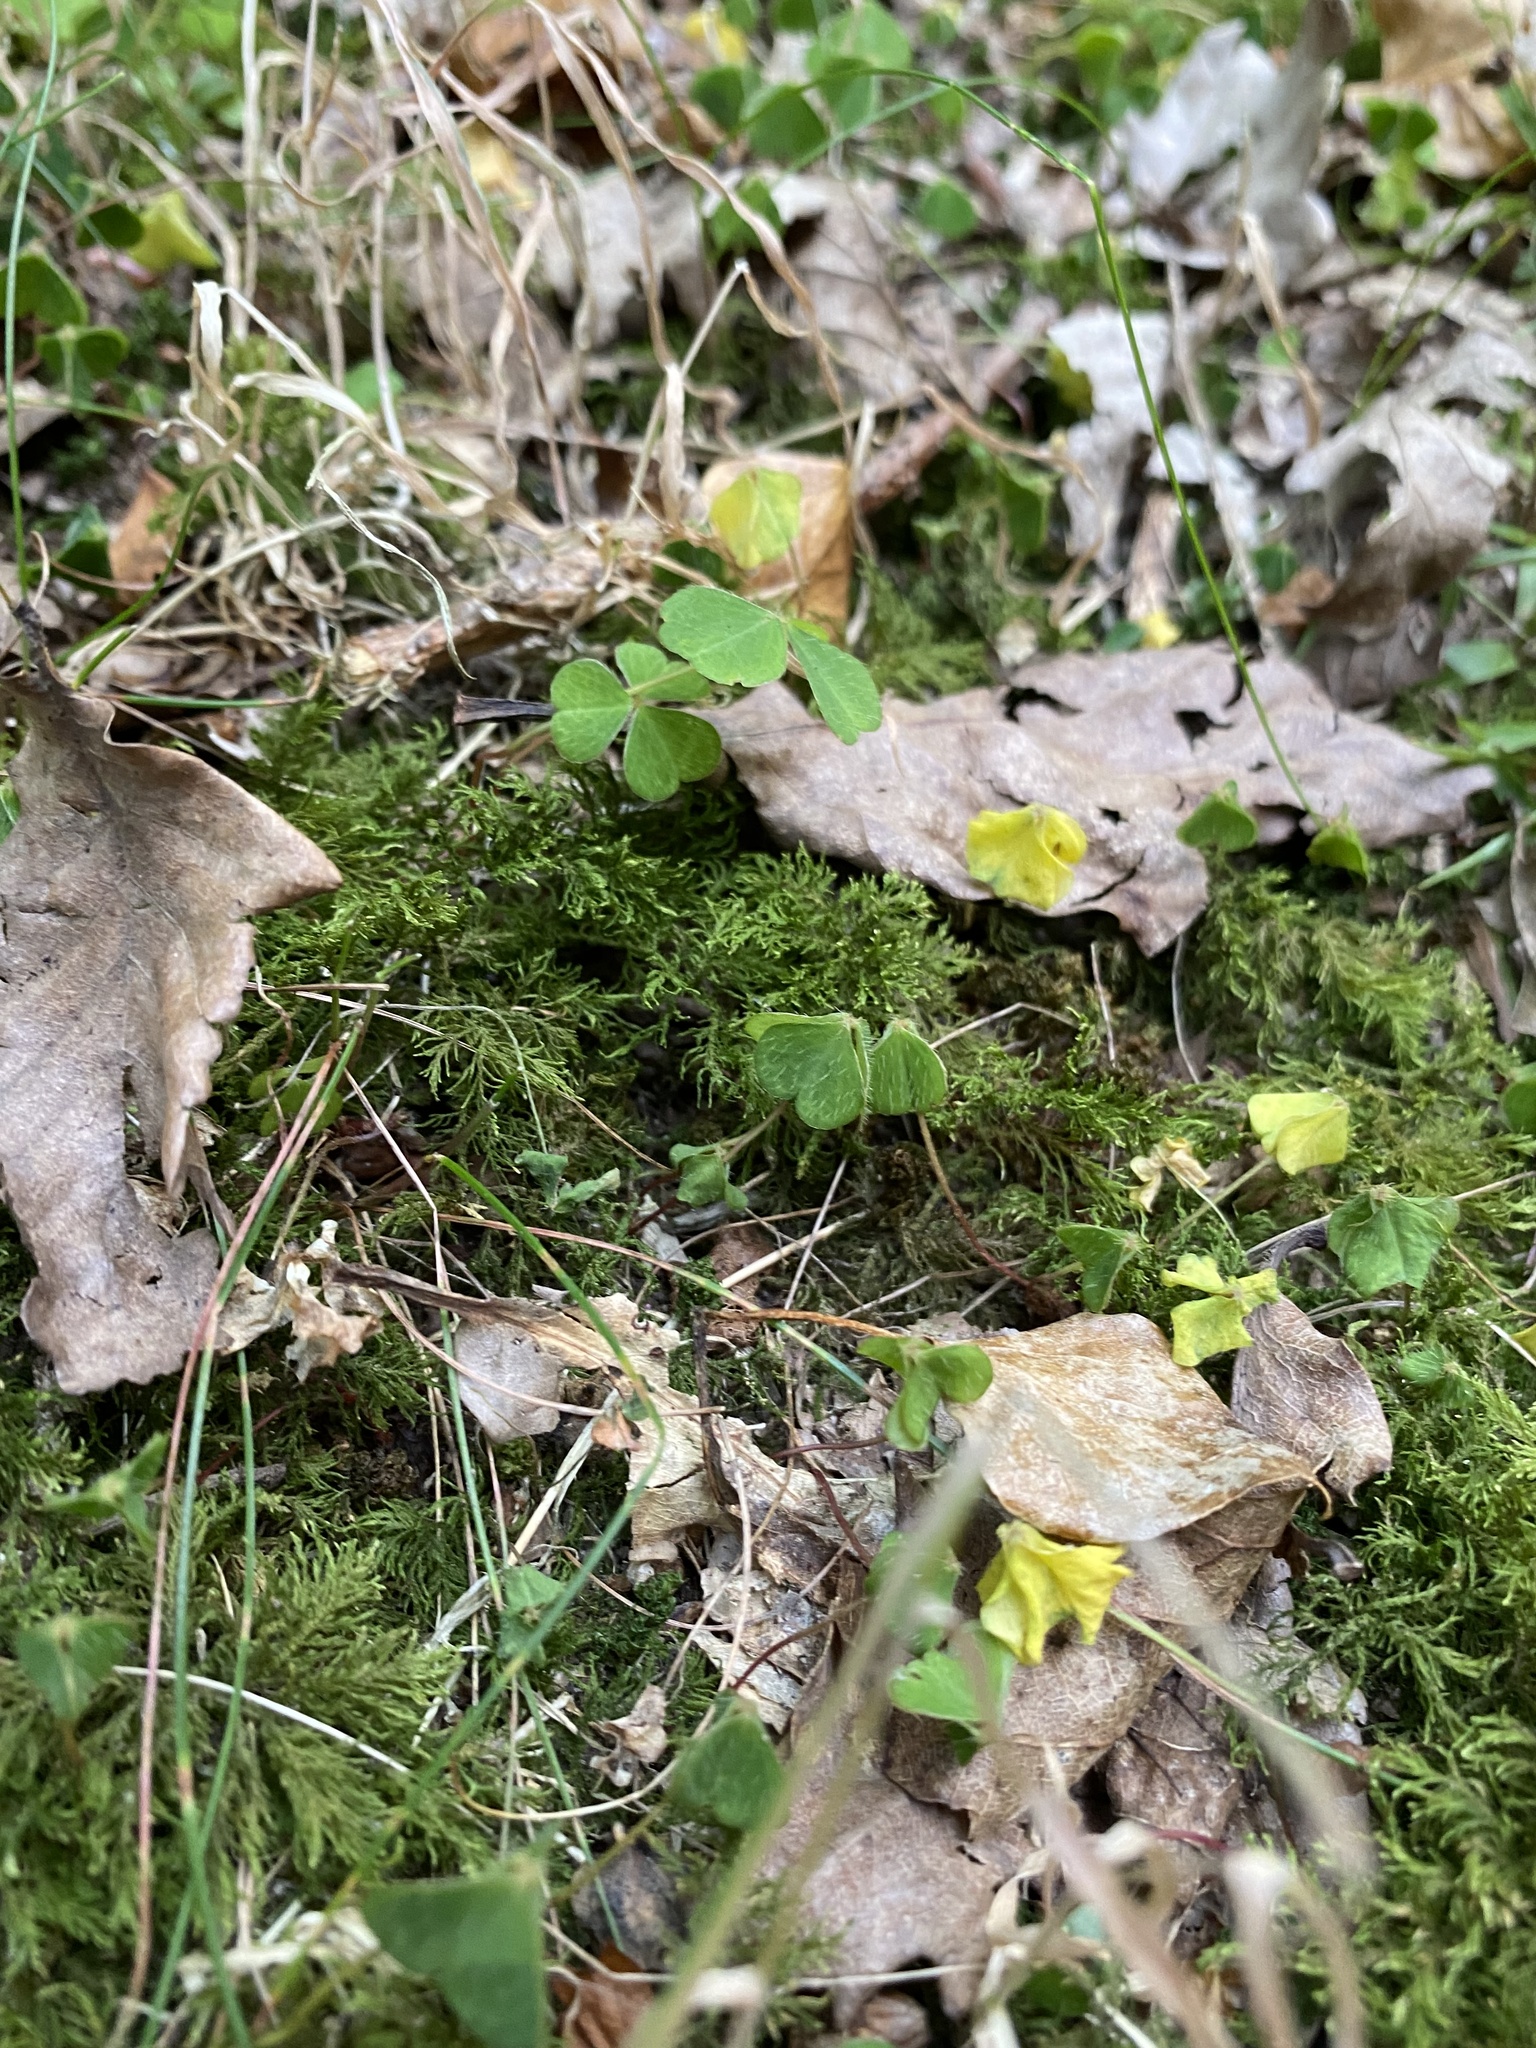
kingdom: Plantae
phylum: Tracheophyta
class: Magnoliopsida
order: Oxalidales
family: Oxalidaceae
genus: Oxalis
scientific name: Oxalis acetosella
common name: Wood-sorrel
